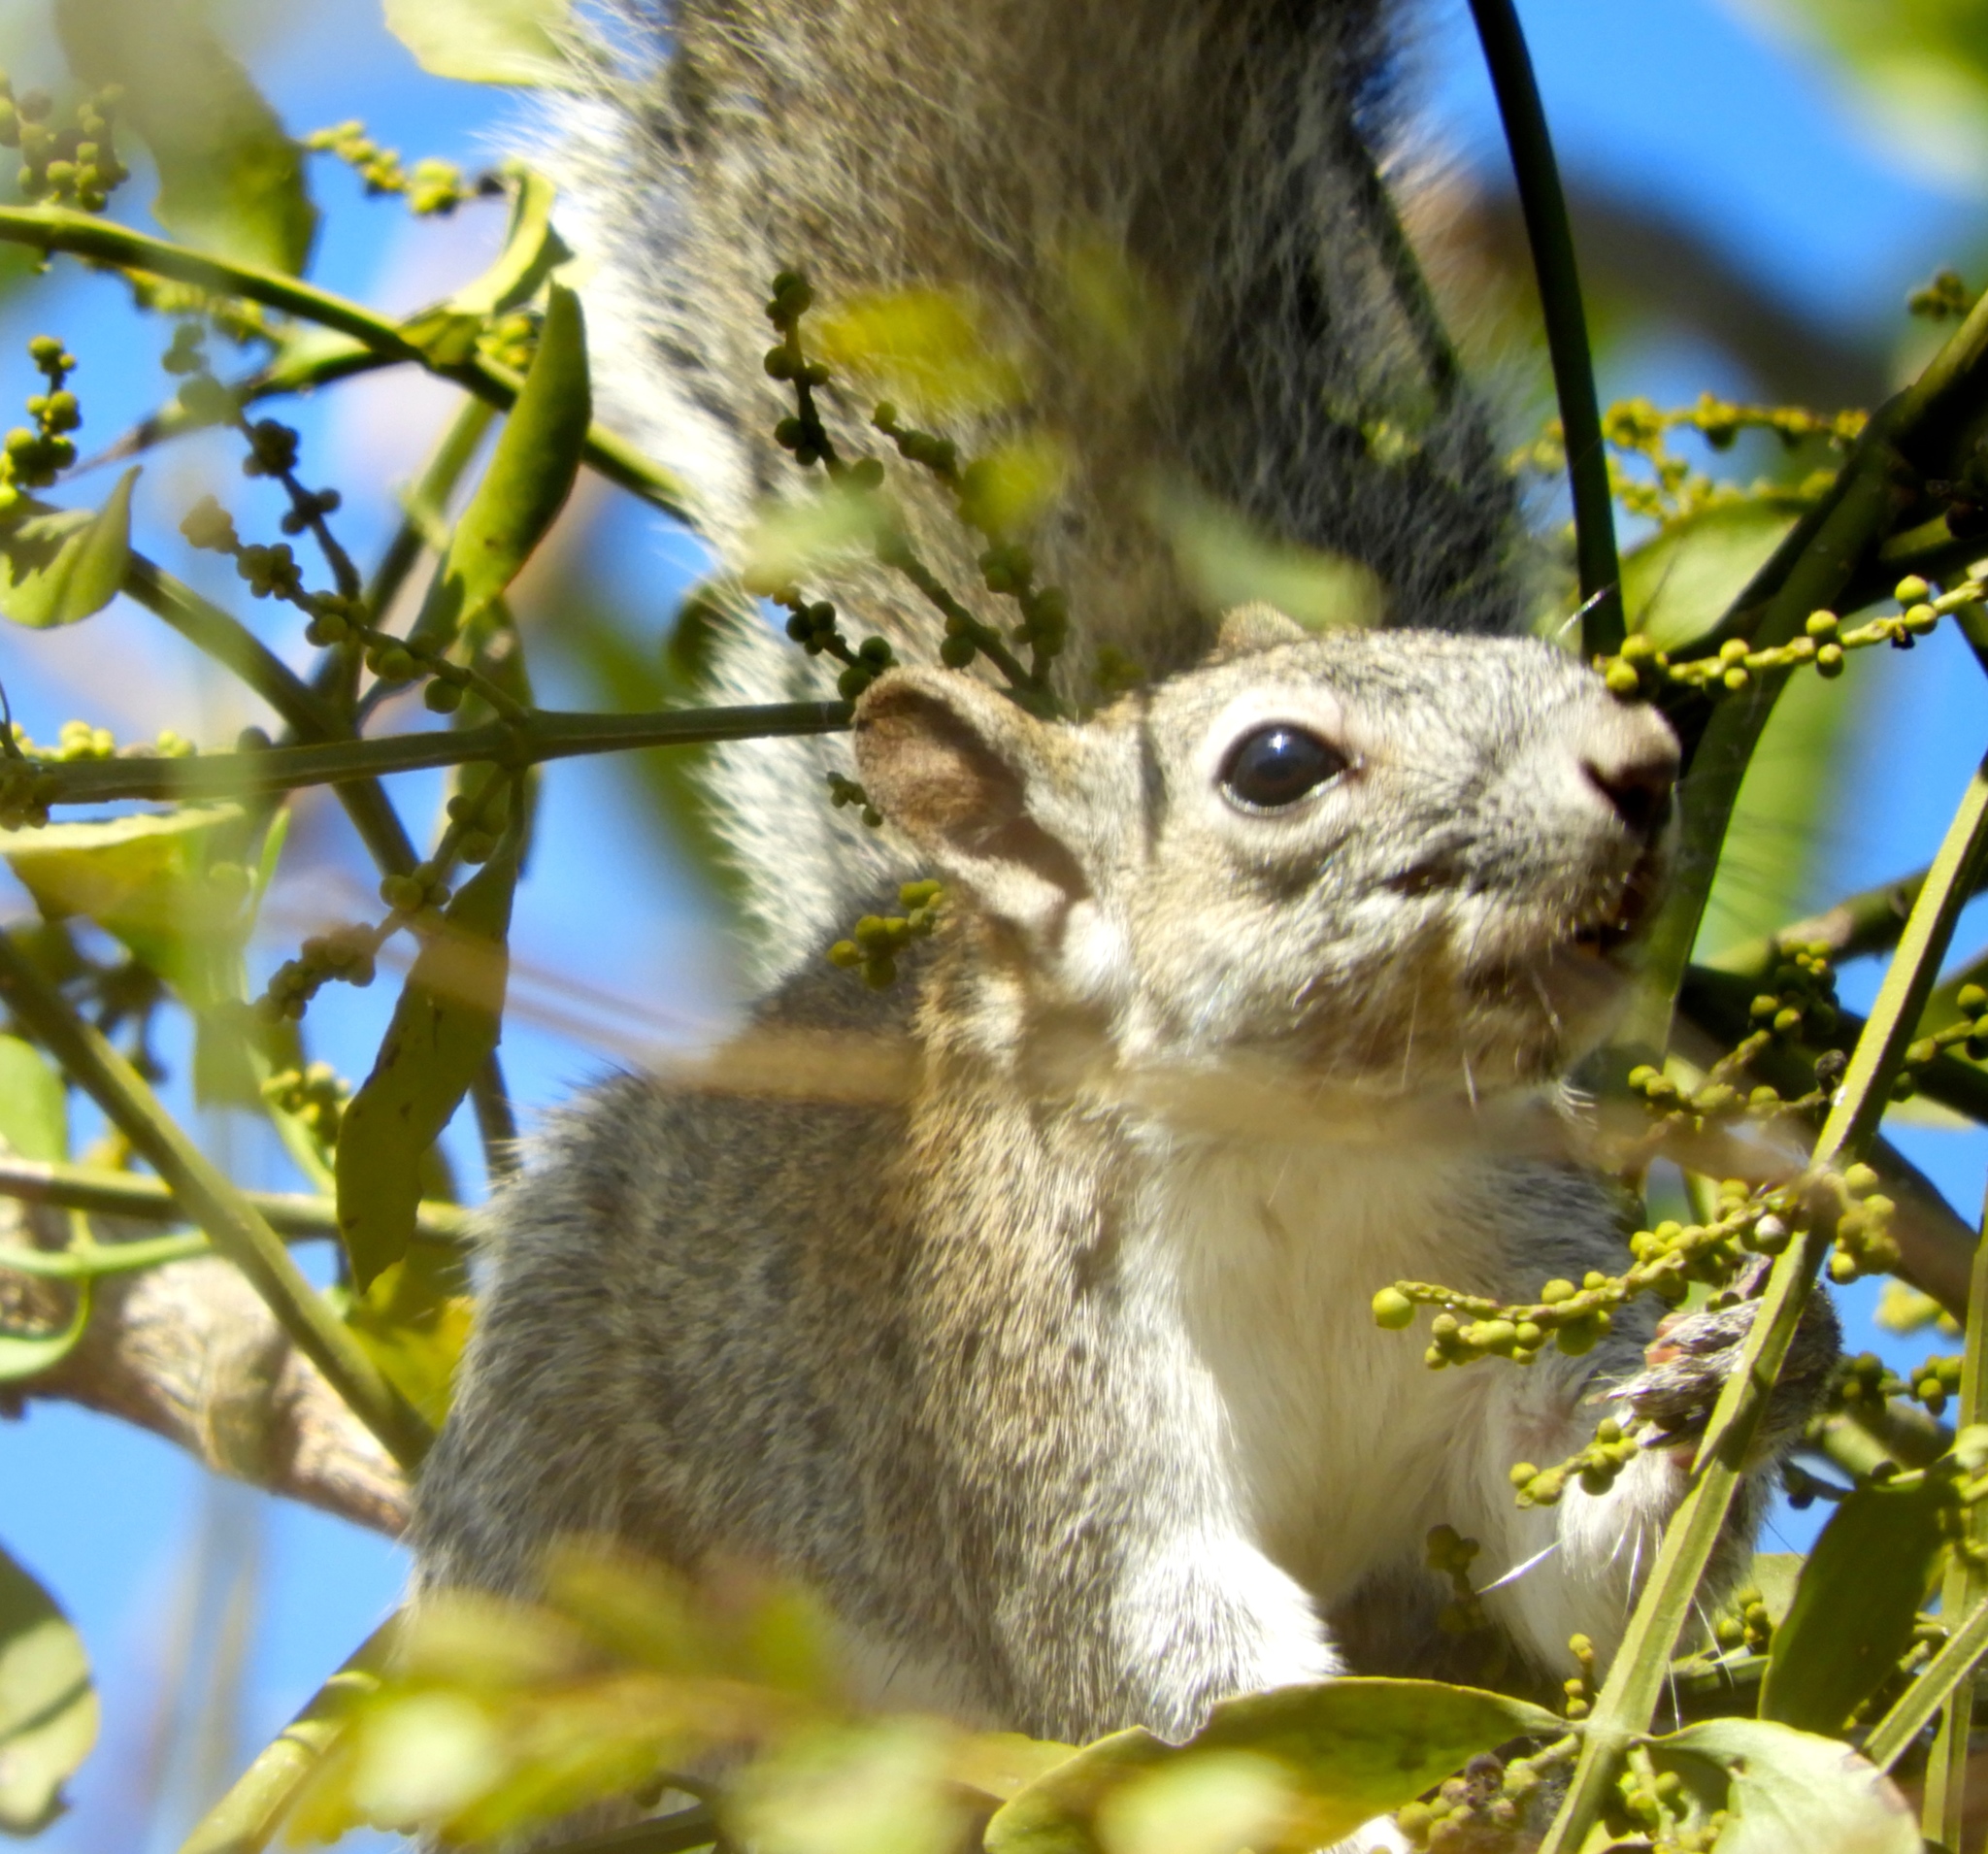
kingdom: Animalia
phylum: Chordata
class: Mammalia
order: Rodentia
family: Sciuridae
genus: Sciurus
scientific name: Sciurus colliaei
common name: Collie's squirrel
